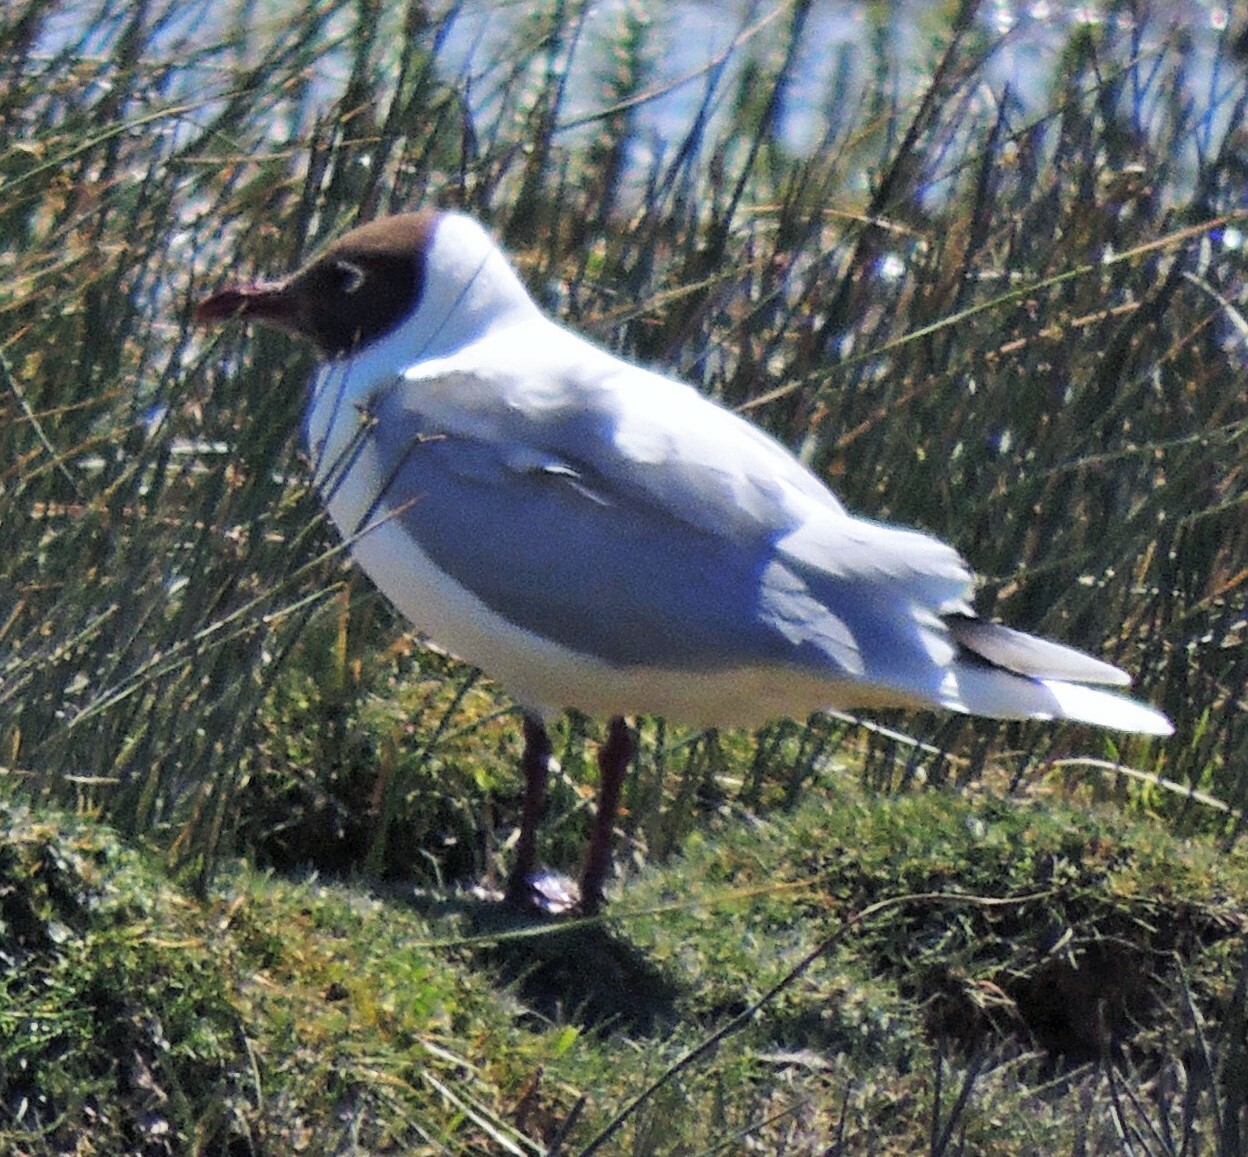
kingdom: Animalia
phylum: Chordata
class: Aves
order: Charadriiformes
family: Laridae
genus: Chroicocephalus
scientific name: Chroicocephalus maculipennis
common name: Brown-hooded gull
